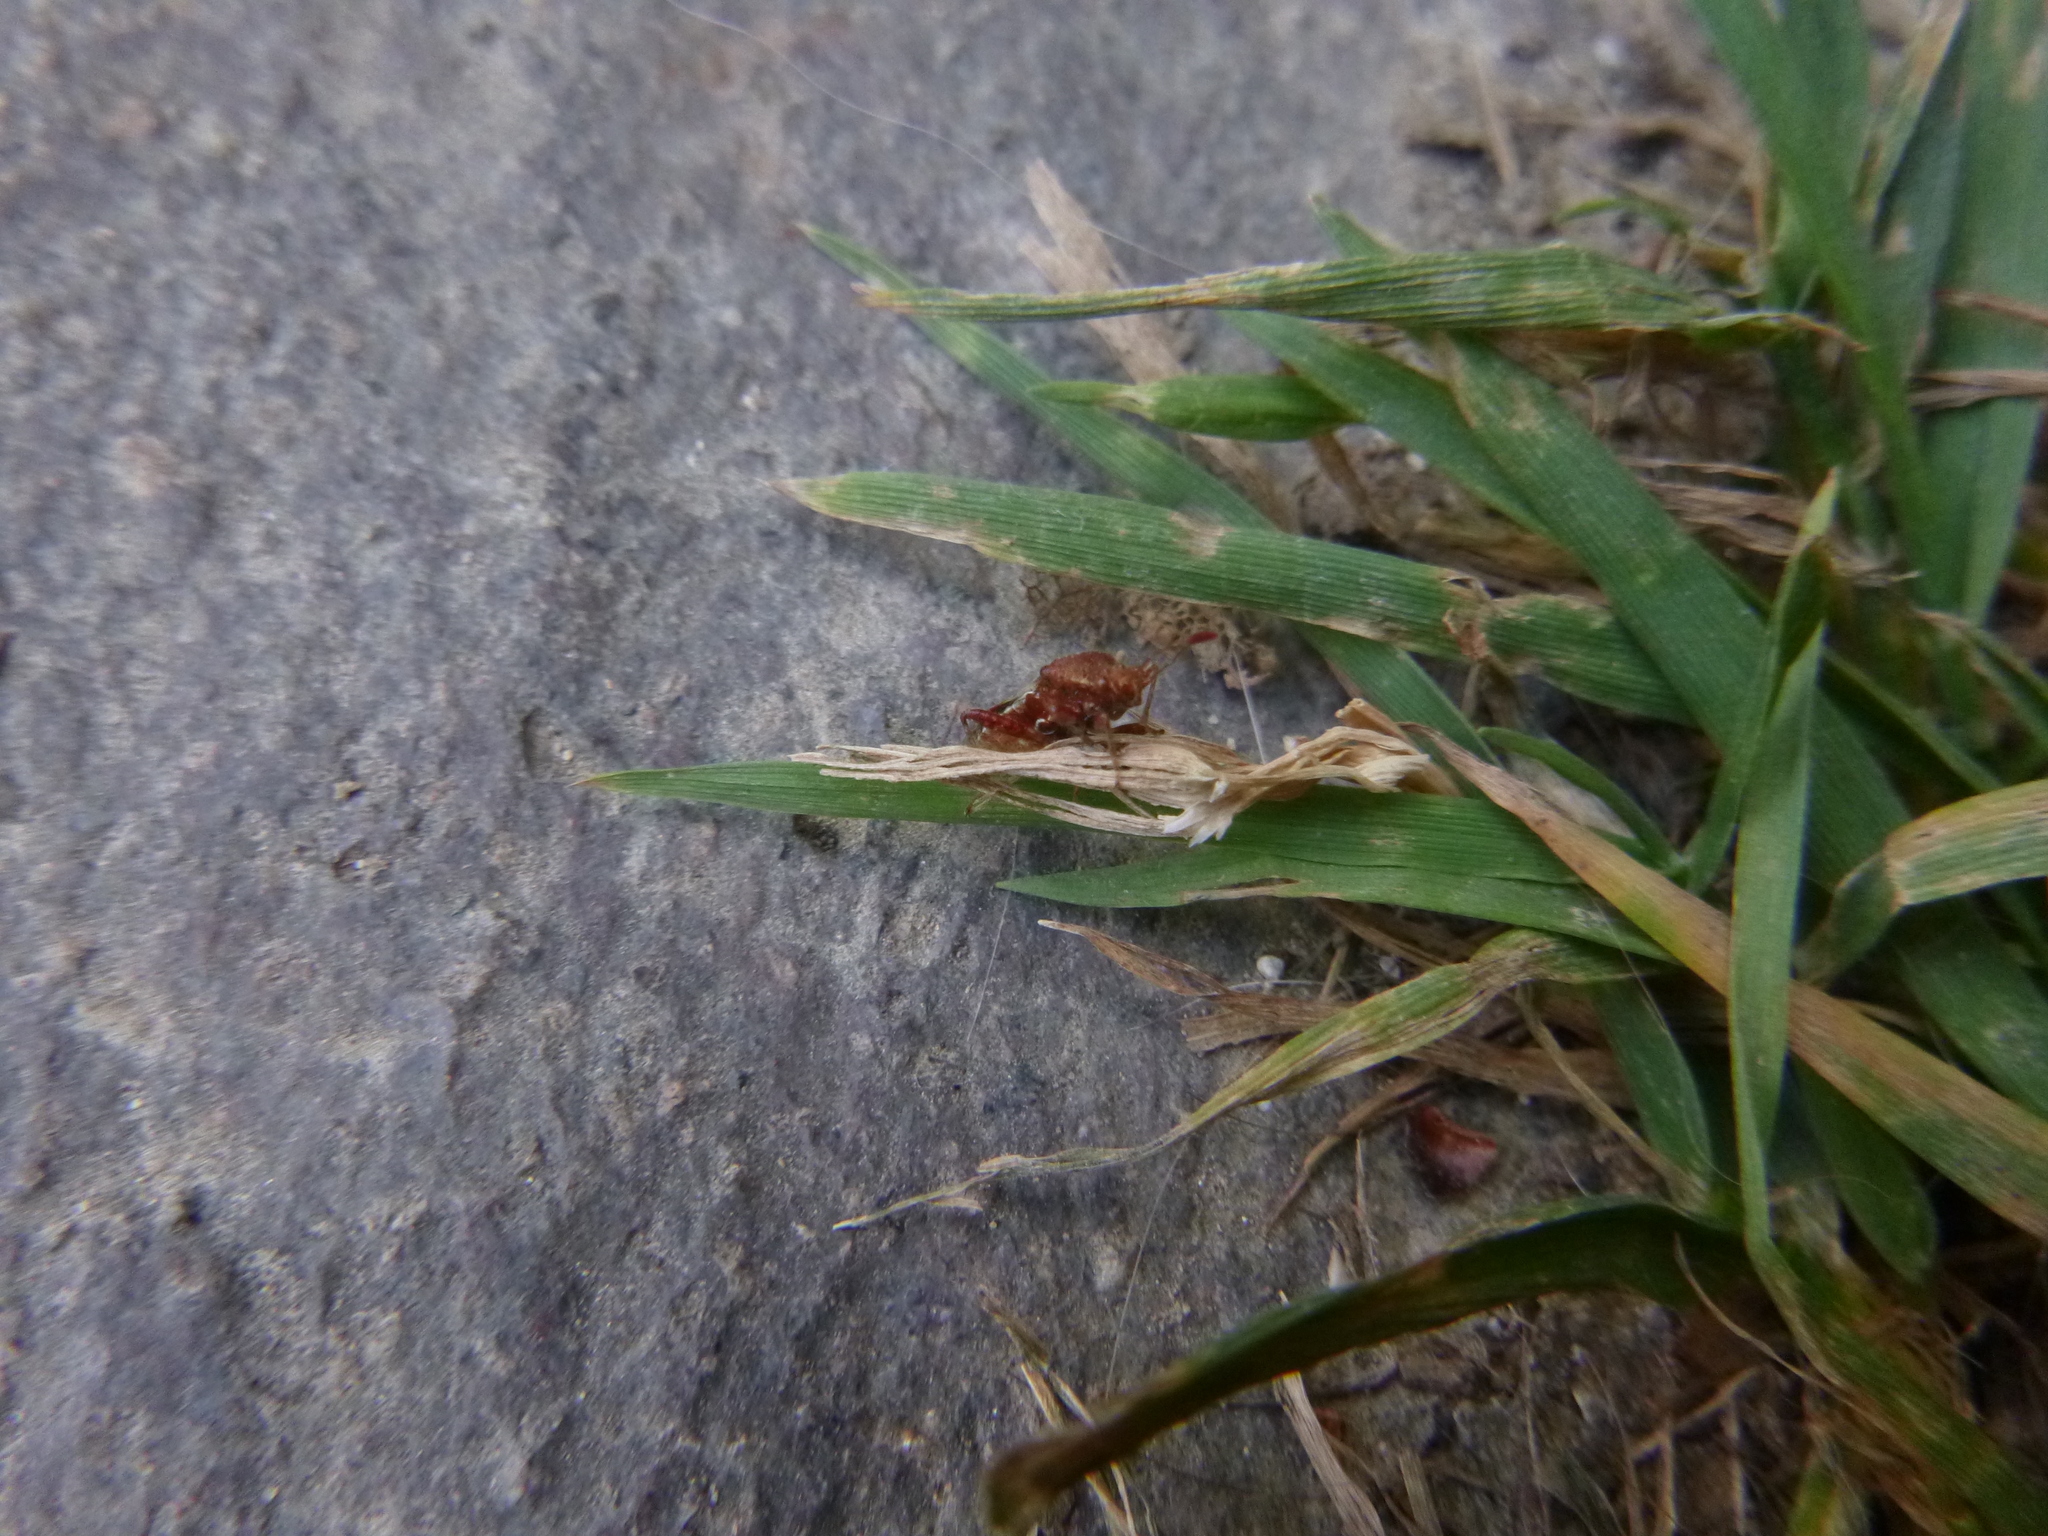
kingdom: Animalia
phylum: Arthropoda
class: Insecta
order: Hemiptera
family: Rhopalidae
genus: Rhopalus
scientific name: Rhopalus subrufus
